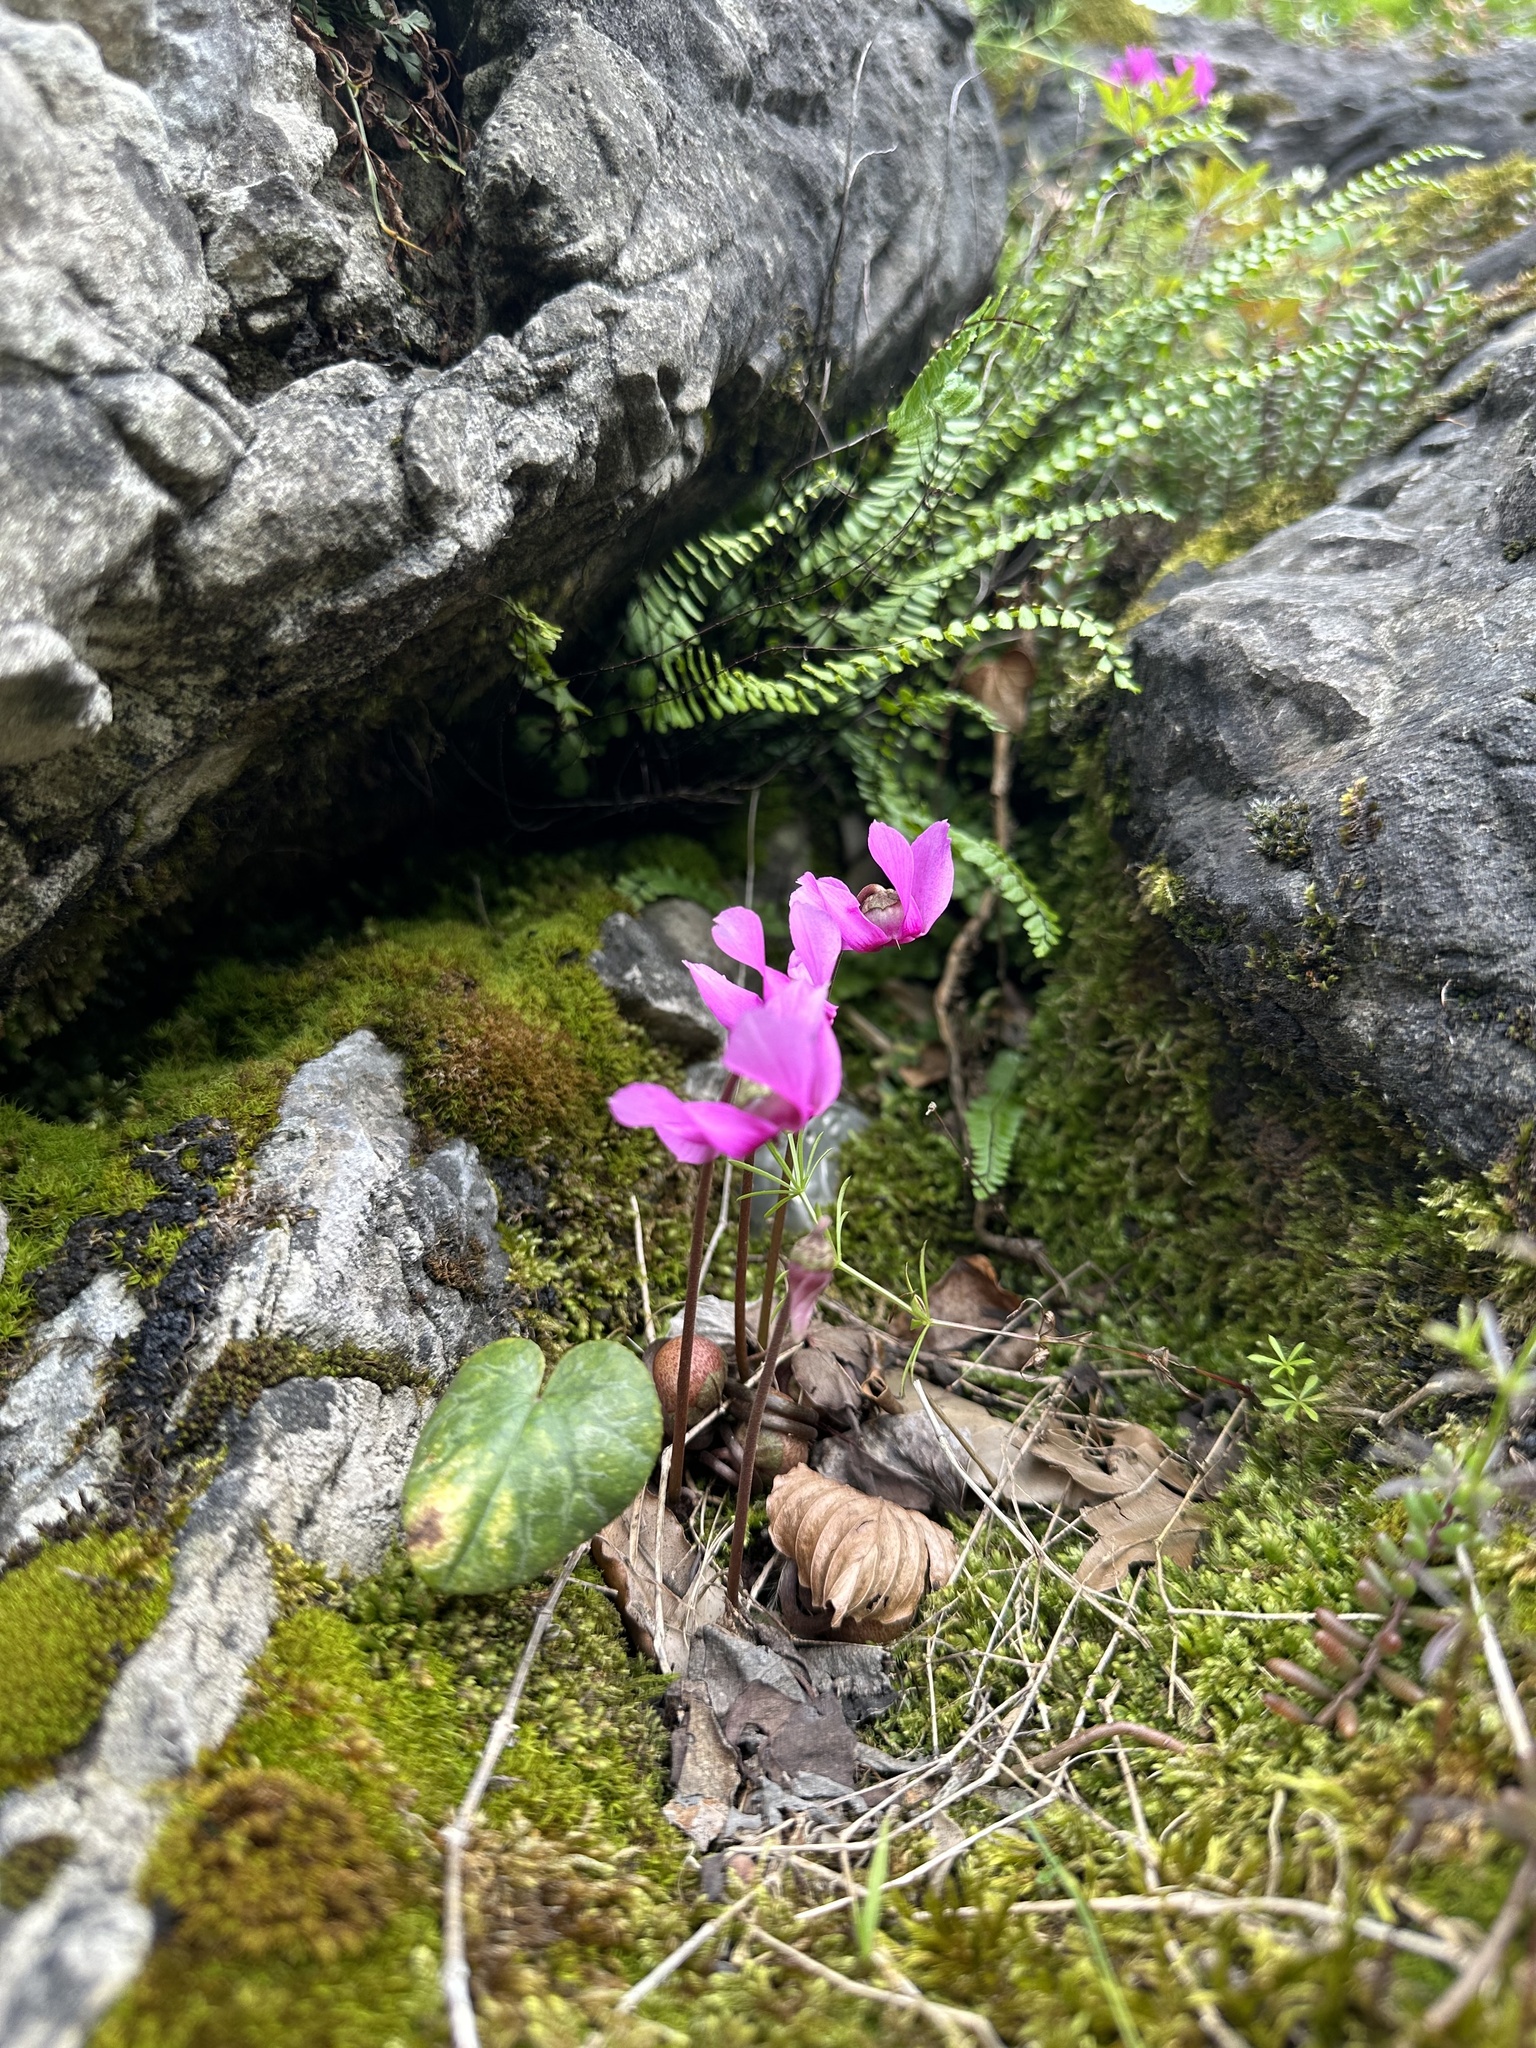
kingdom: Plantae
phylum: Tracheophyta
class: Magnoliopsida
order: Ericales
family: Primulaceae
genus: Cyclamen
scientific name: Cyclamen purpurascens
